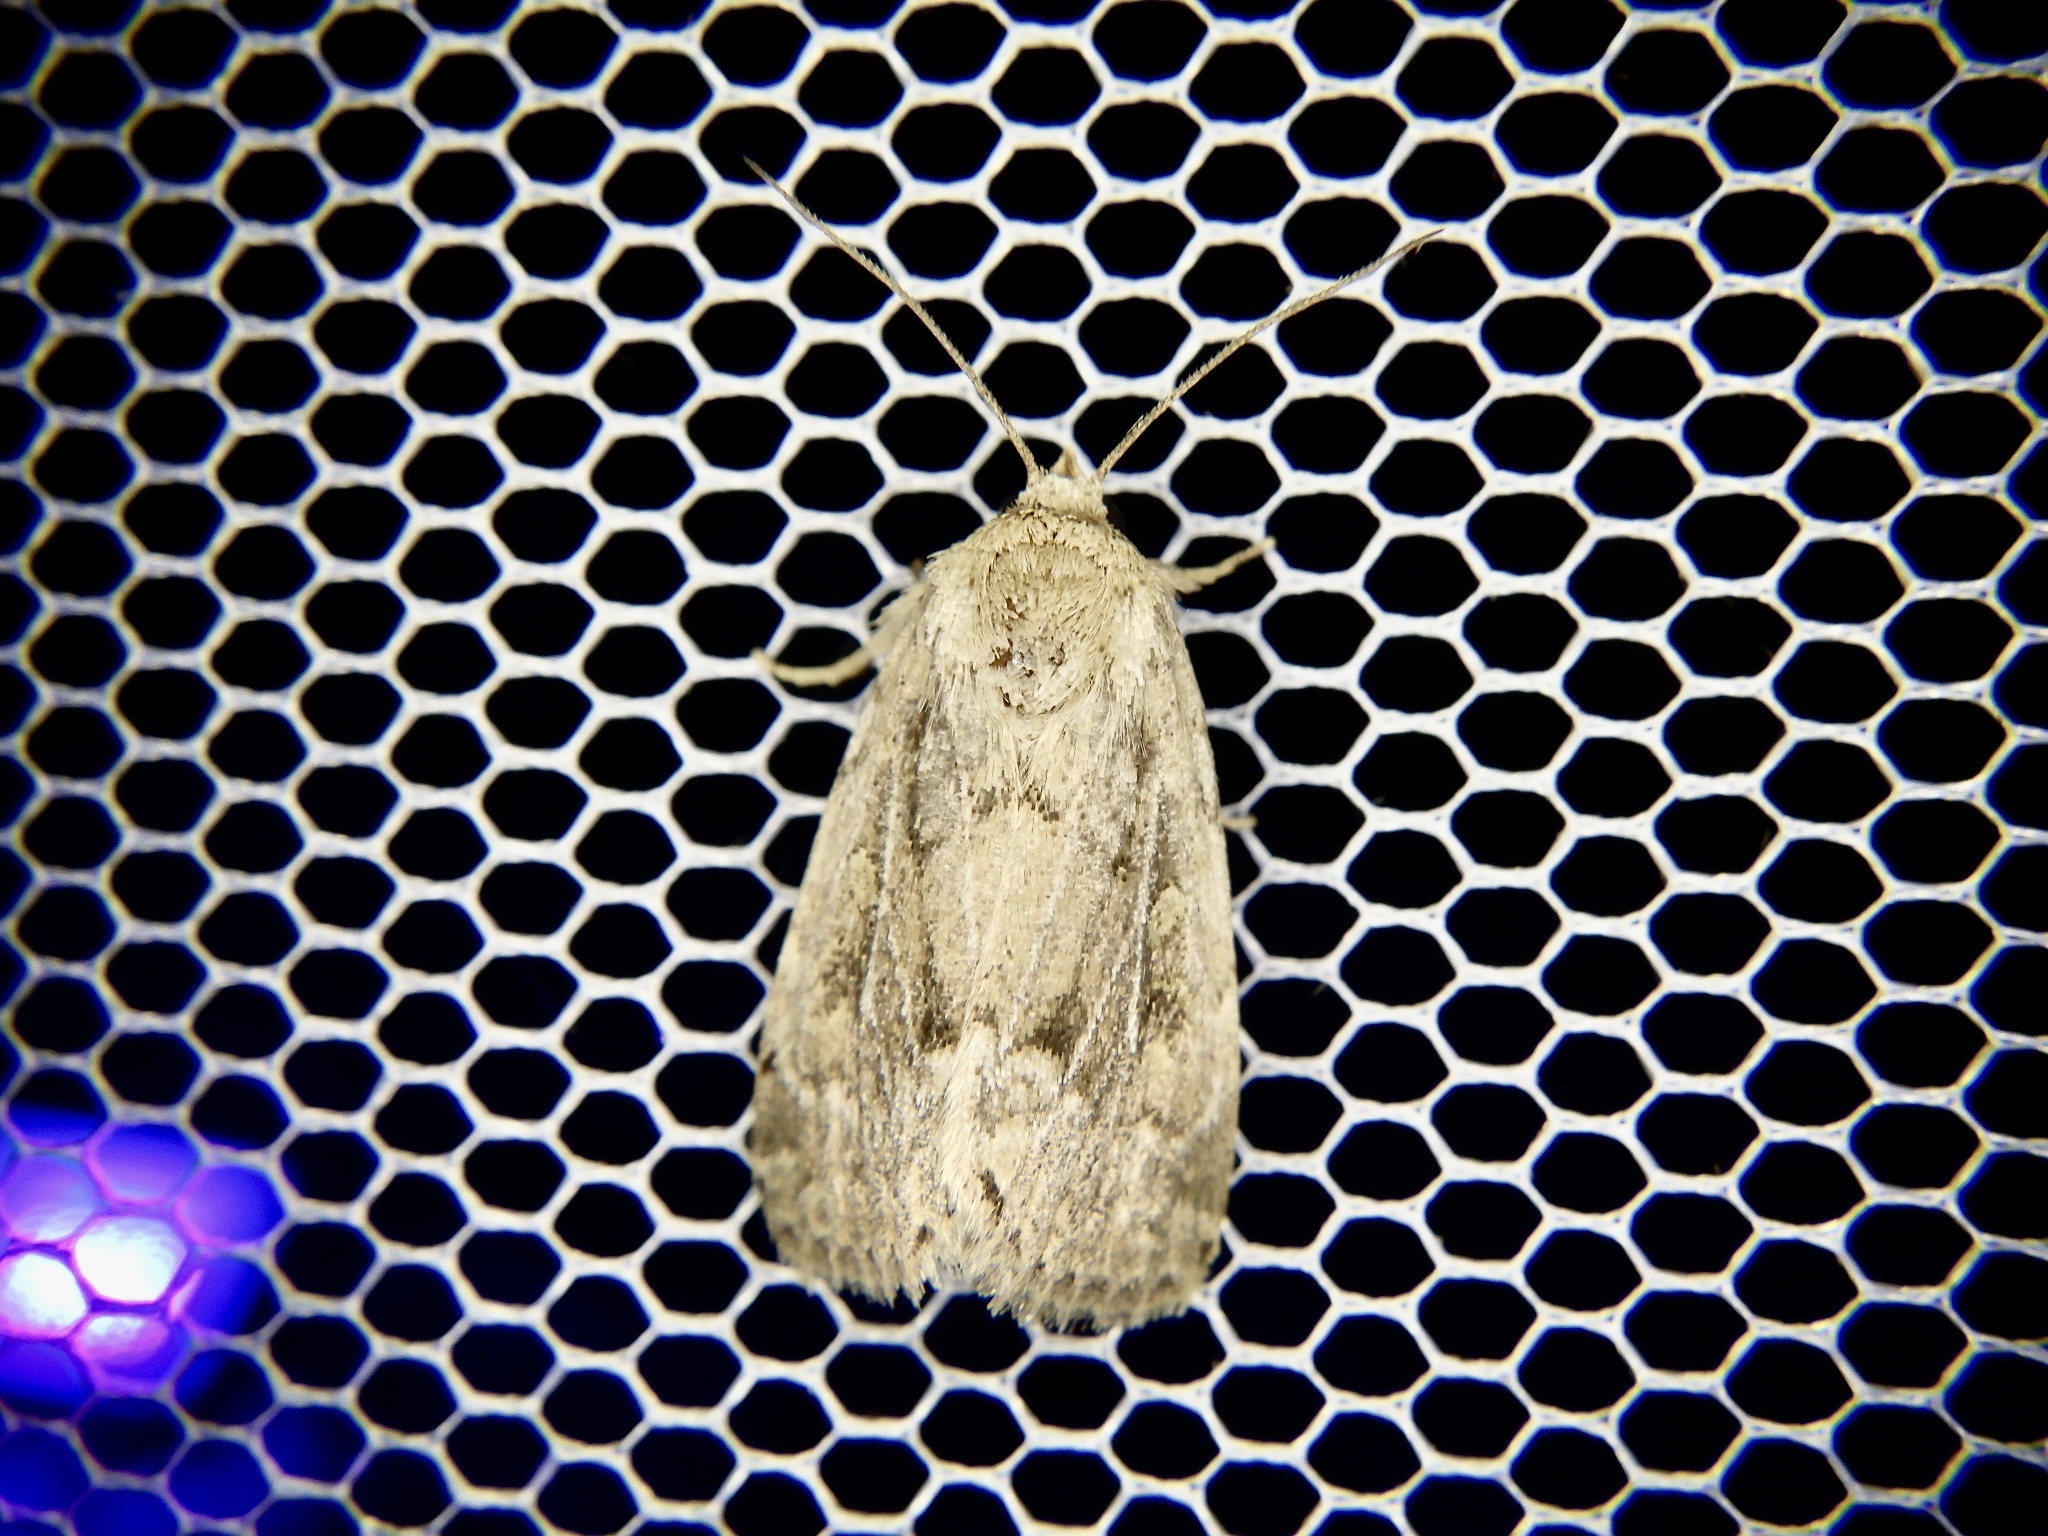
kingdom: Animalia
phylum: Arthropoda
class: Insecta
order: Lepidoptera
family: Noctuidae
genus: Spodoptera
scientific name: Spodoptera depravata
